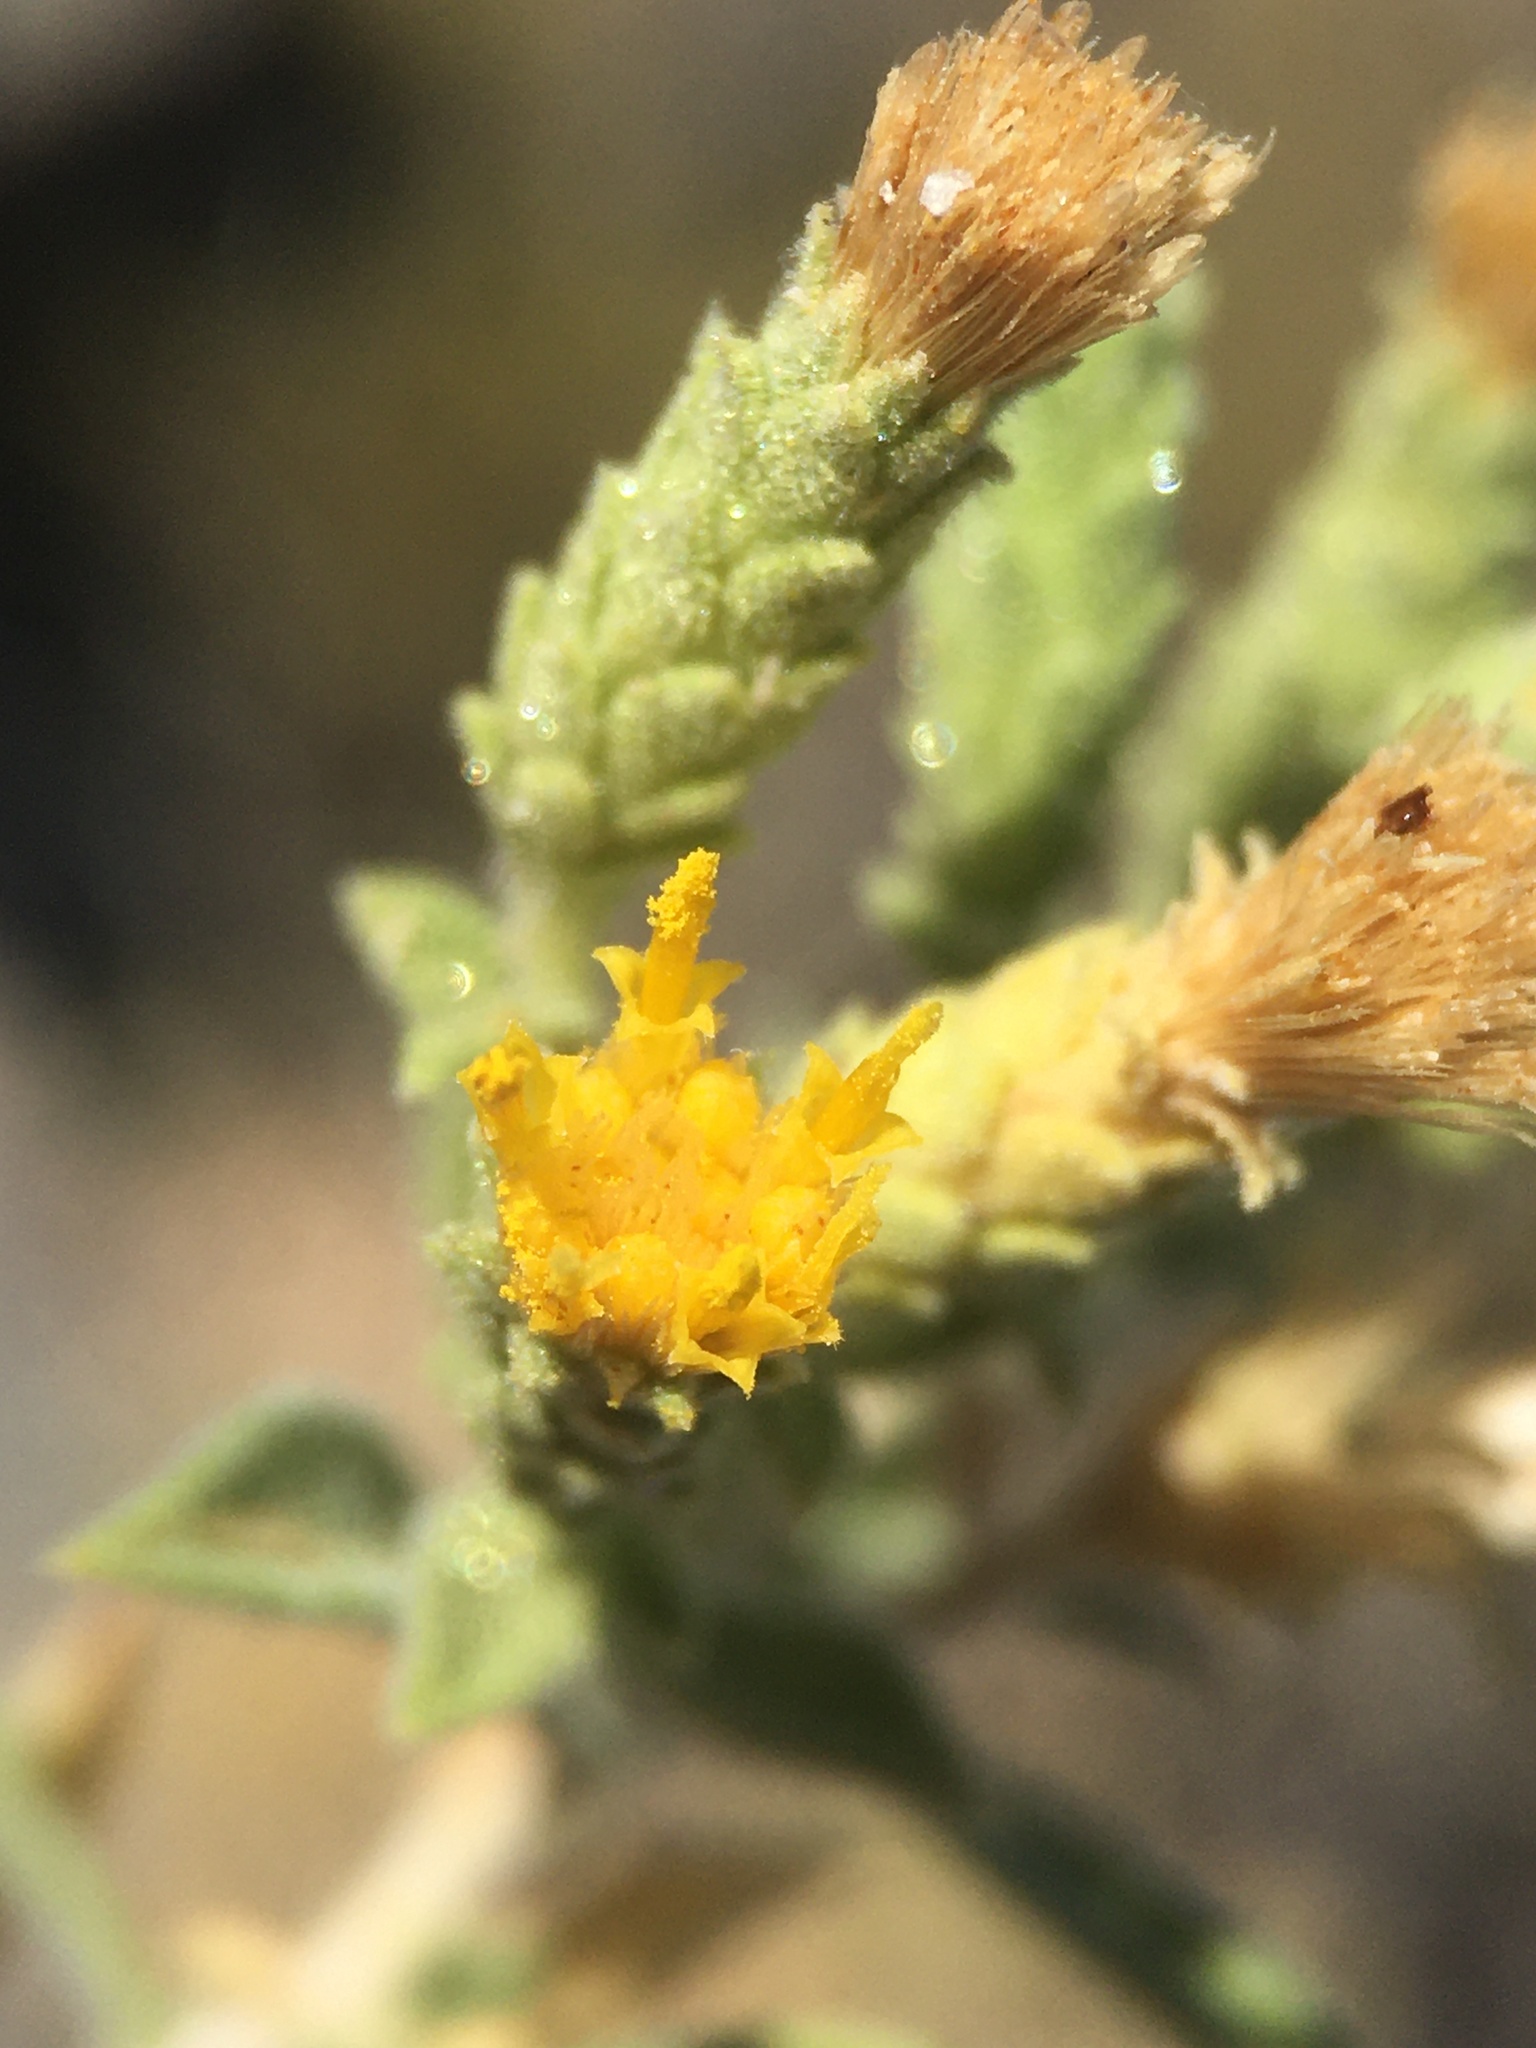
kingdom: Plantae
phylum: Tracheophyta
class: Magnoliopsida
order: Asterales
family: Asteraceae
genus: Adiaphila
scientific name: Adiaphila brickellioides
